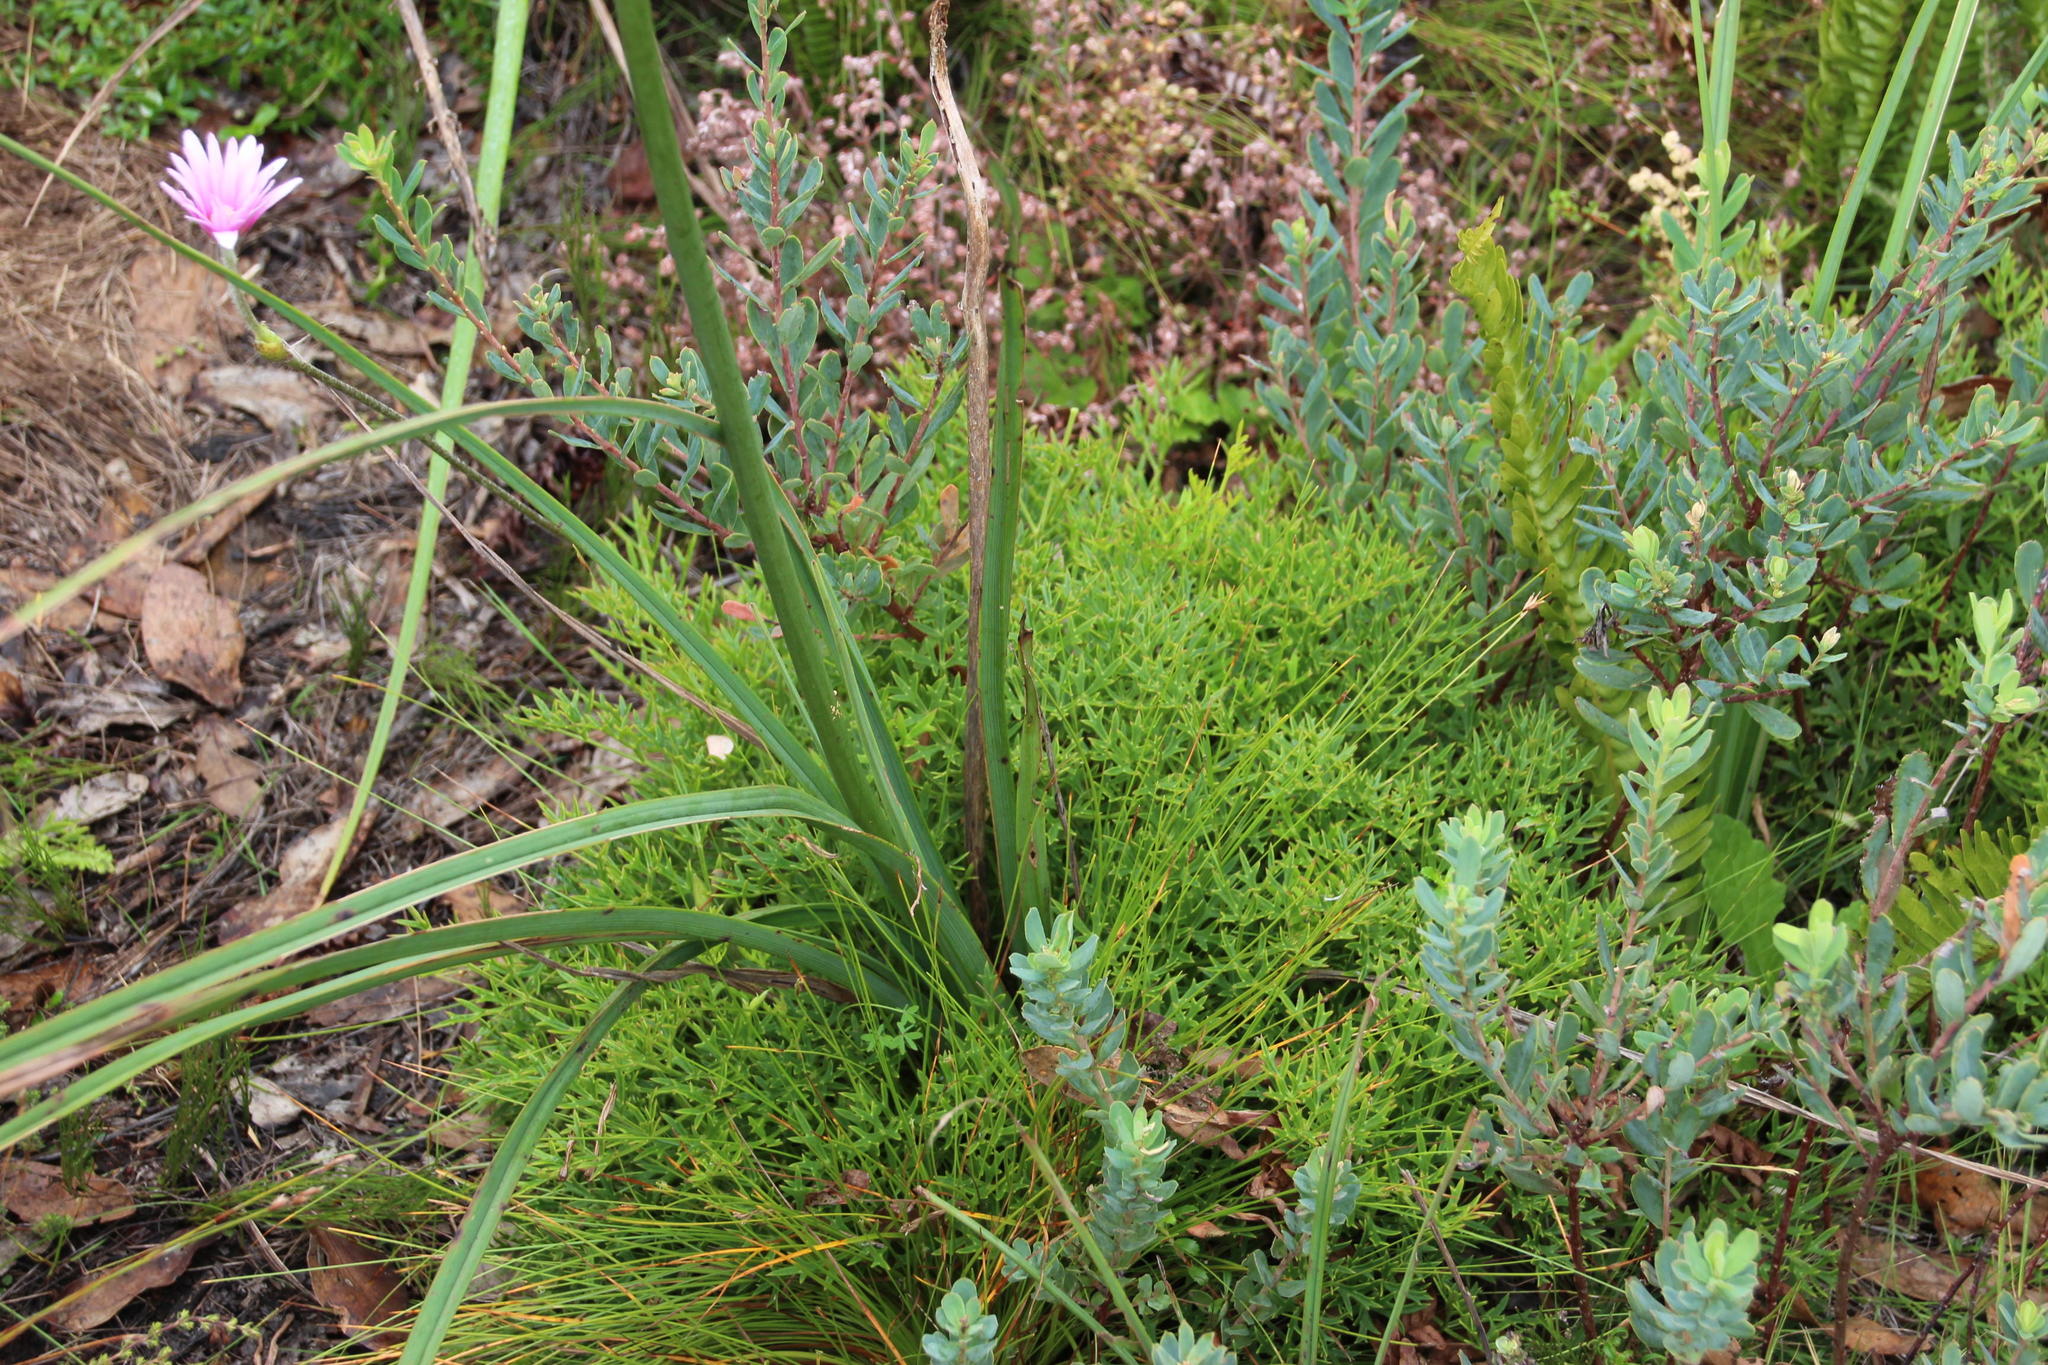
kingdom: Plantae
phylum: Tracheophyta
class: Magnoliopsida
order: Ranunculales
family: Ranunculaceae
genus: Knowltonia
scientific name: Knowltonia tenuifolia
